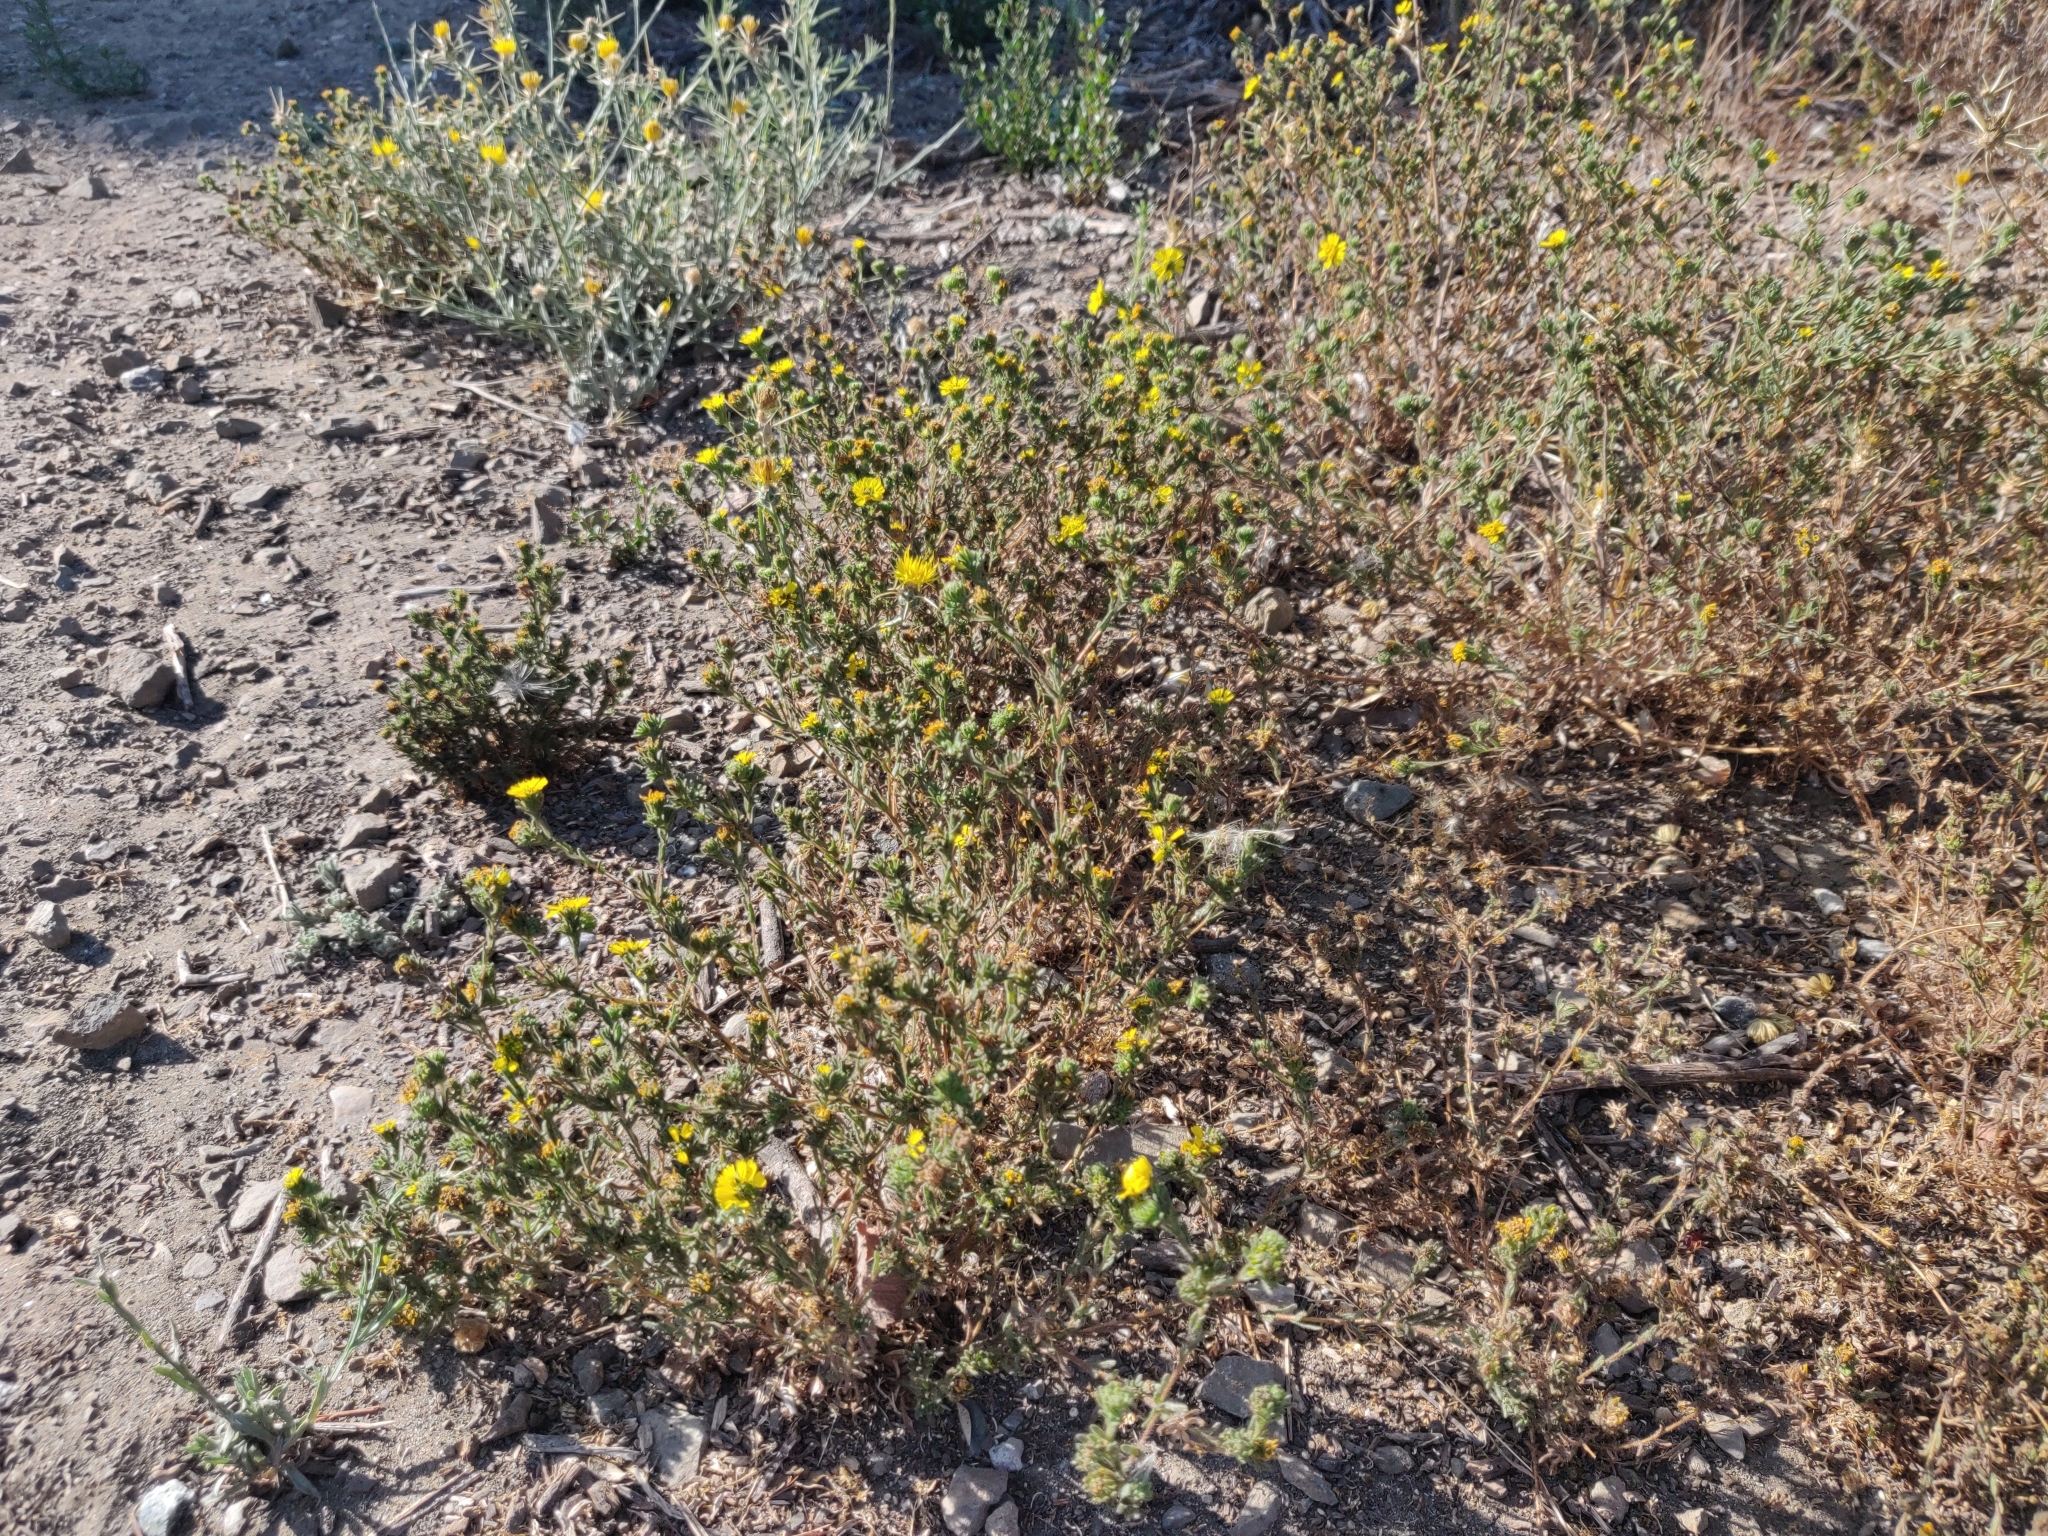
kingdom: Plantae
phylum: Tracheophyta
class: Magnoliopsida
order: Asterales
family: Asteraceae
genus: Deinandra
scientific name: Deinandra corymbosa
